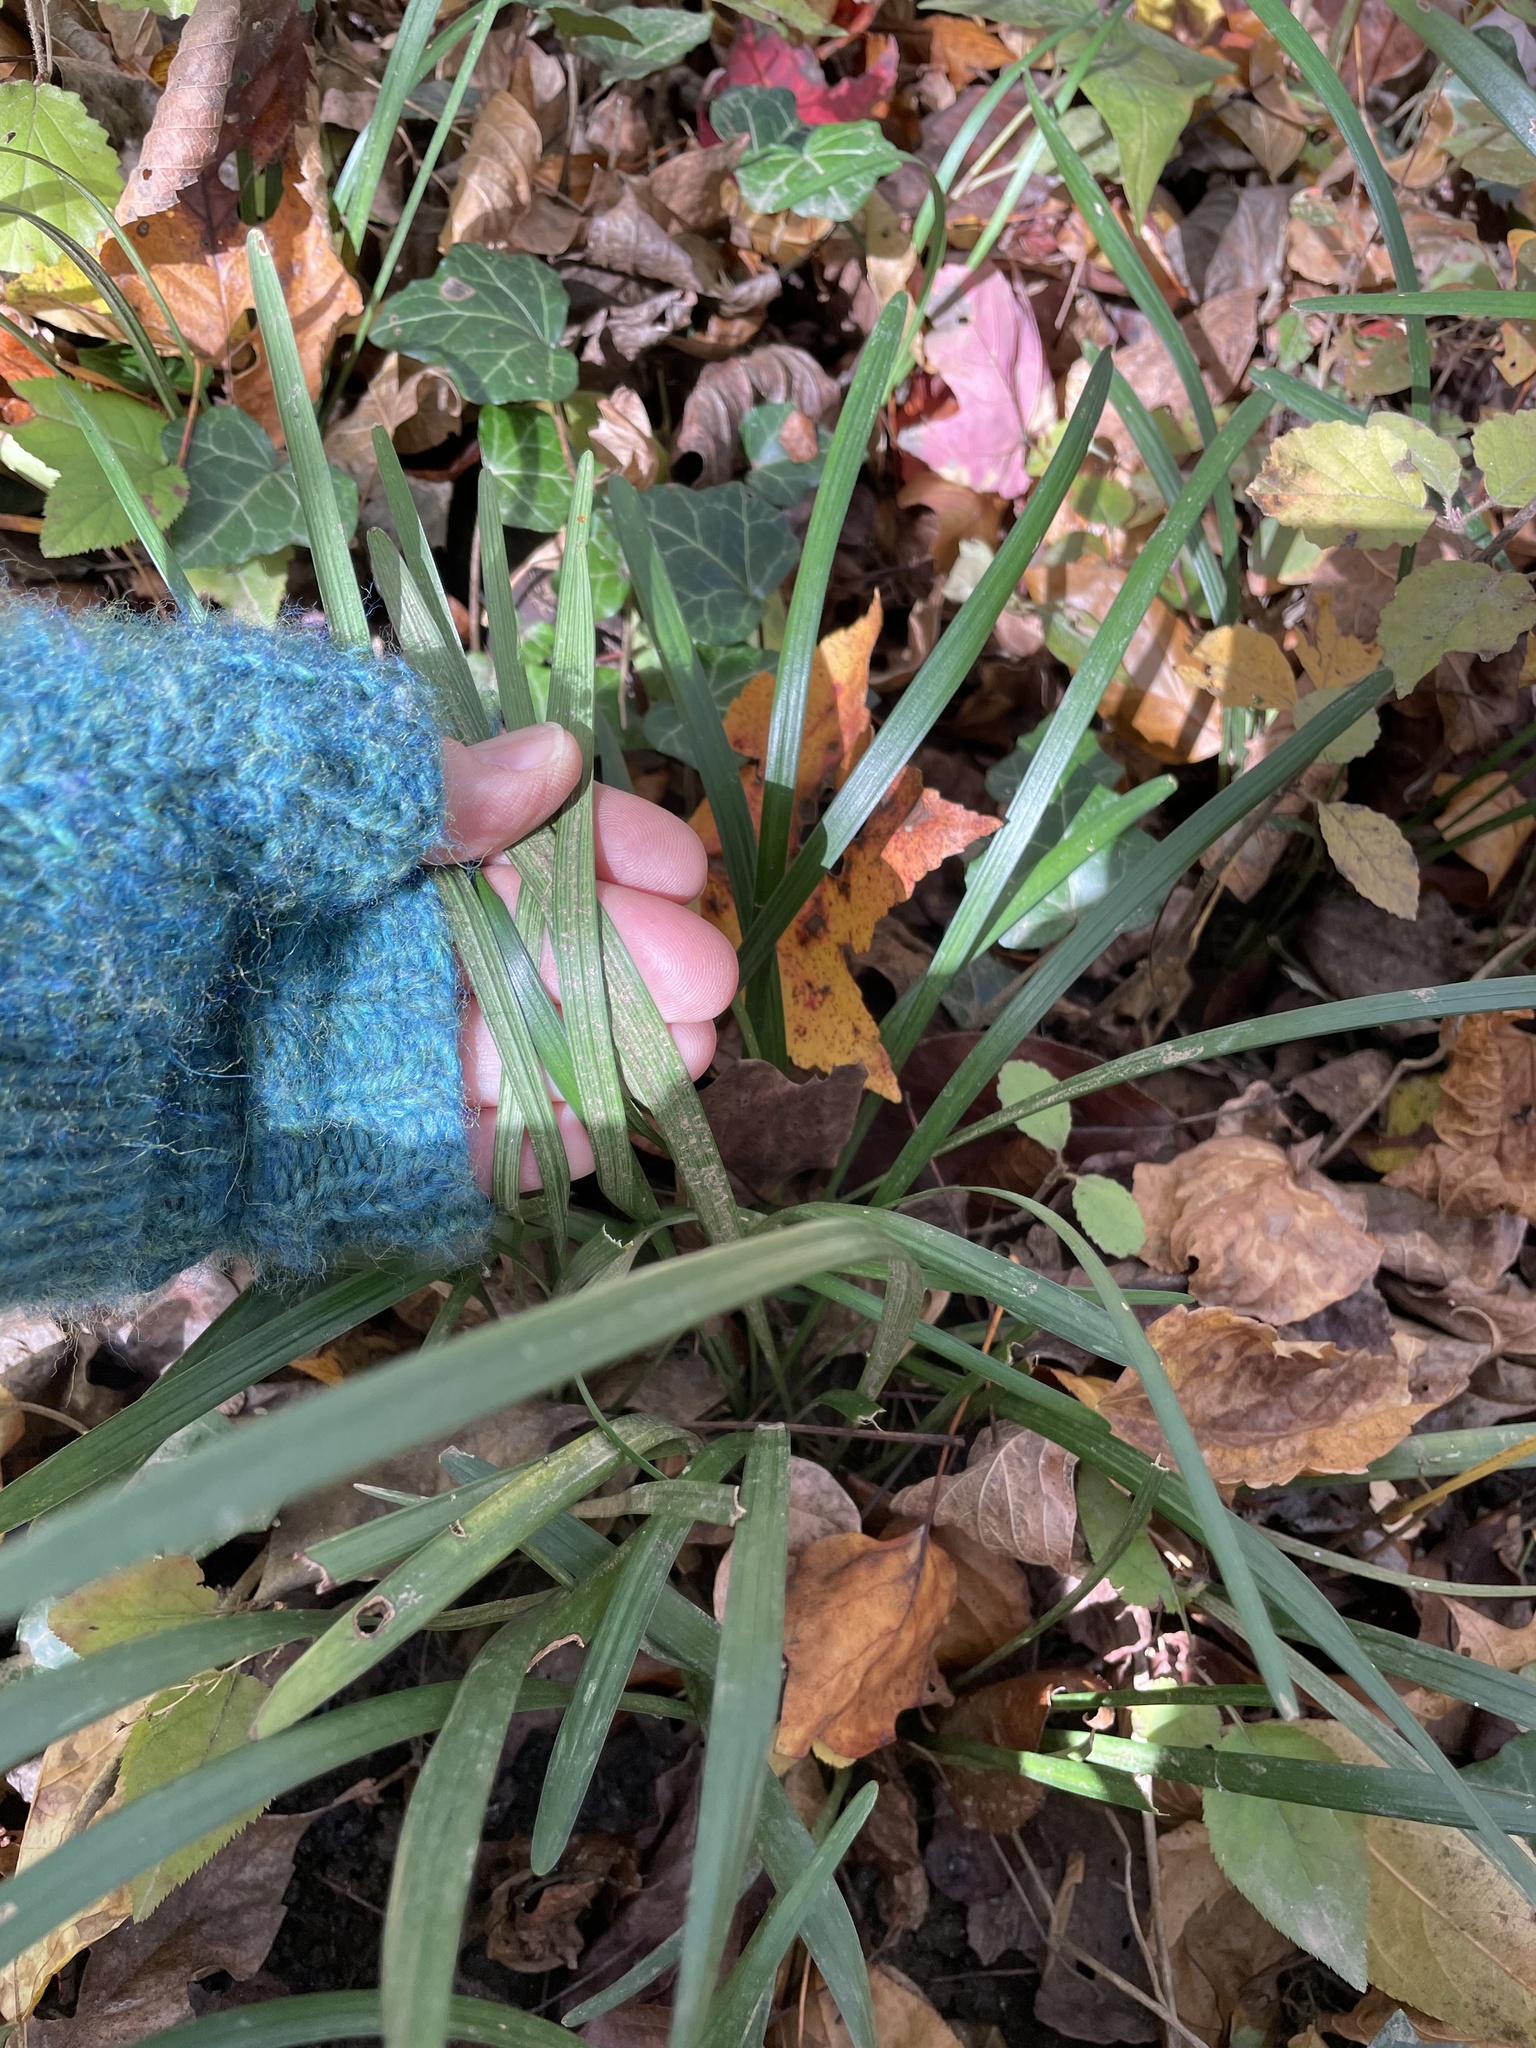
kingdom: Plantae
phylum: Tracheophyta
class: Liliopsida
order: Asparagales
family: Asparagaceae
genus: Liriope
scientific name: Liriope graminifolia
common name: Lilyturf
